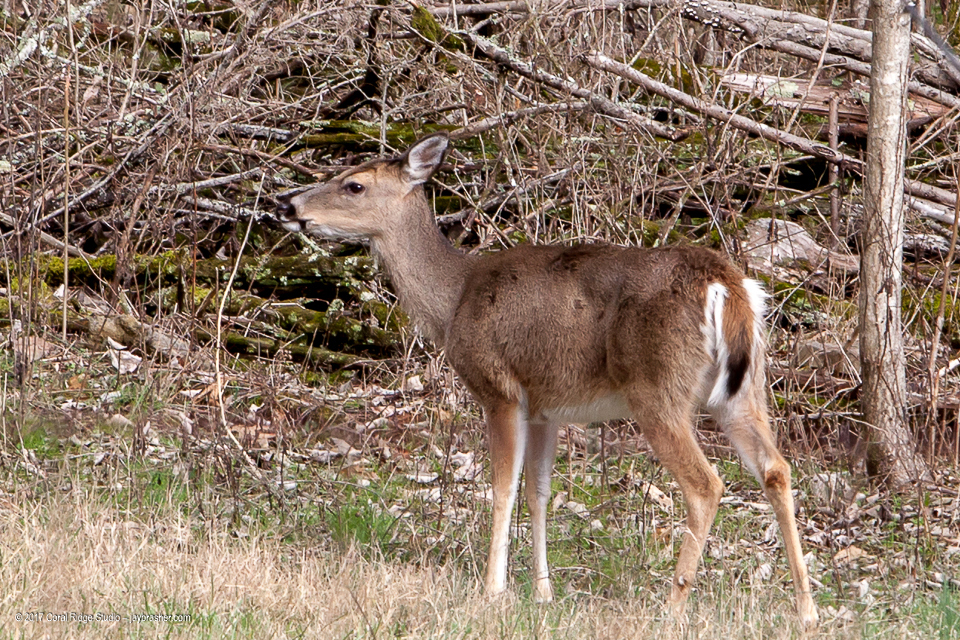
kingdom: Animalia
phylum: Chordata
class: Mammalia
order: Artiodactyla
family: Cervidae
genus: Odocoileus
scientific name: Odocoileus virginianus
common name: White-tailed deer
